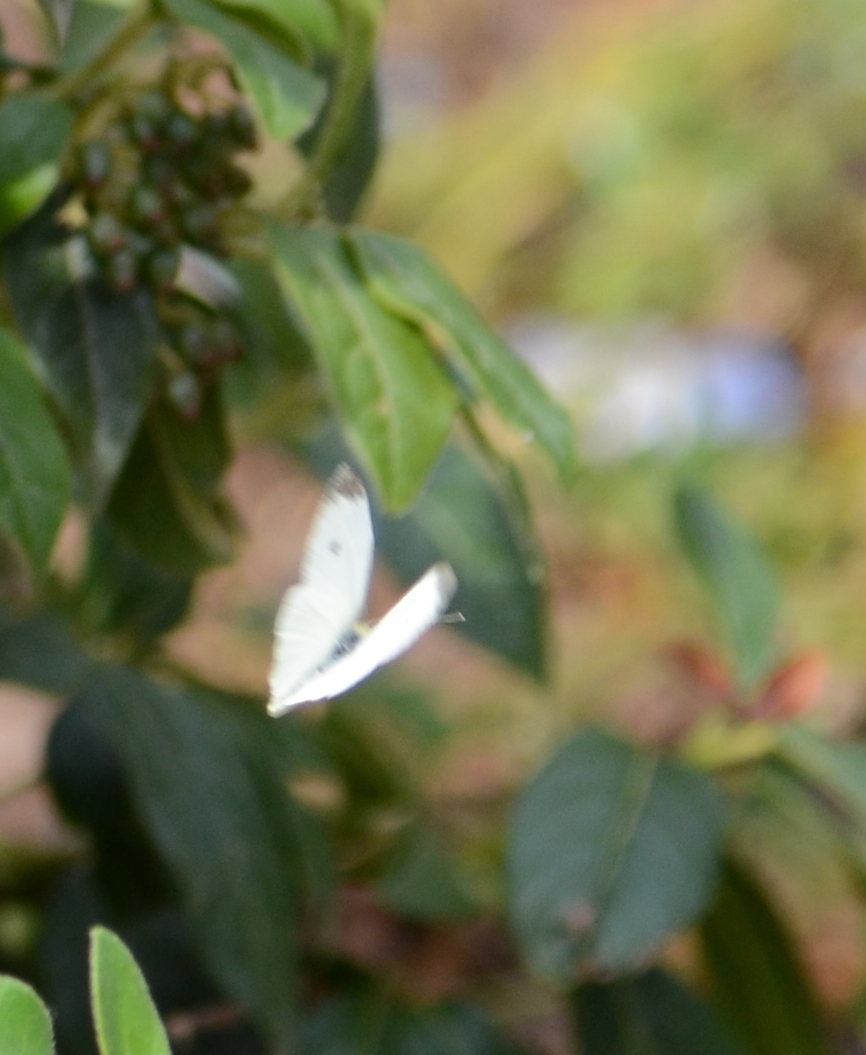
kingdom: Animalia
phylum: Arthropoda
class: Insecta
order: Lepidoptera
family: Pieridae
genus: Pieris
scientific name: Pieris rapae
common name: Small white
